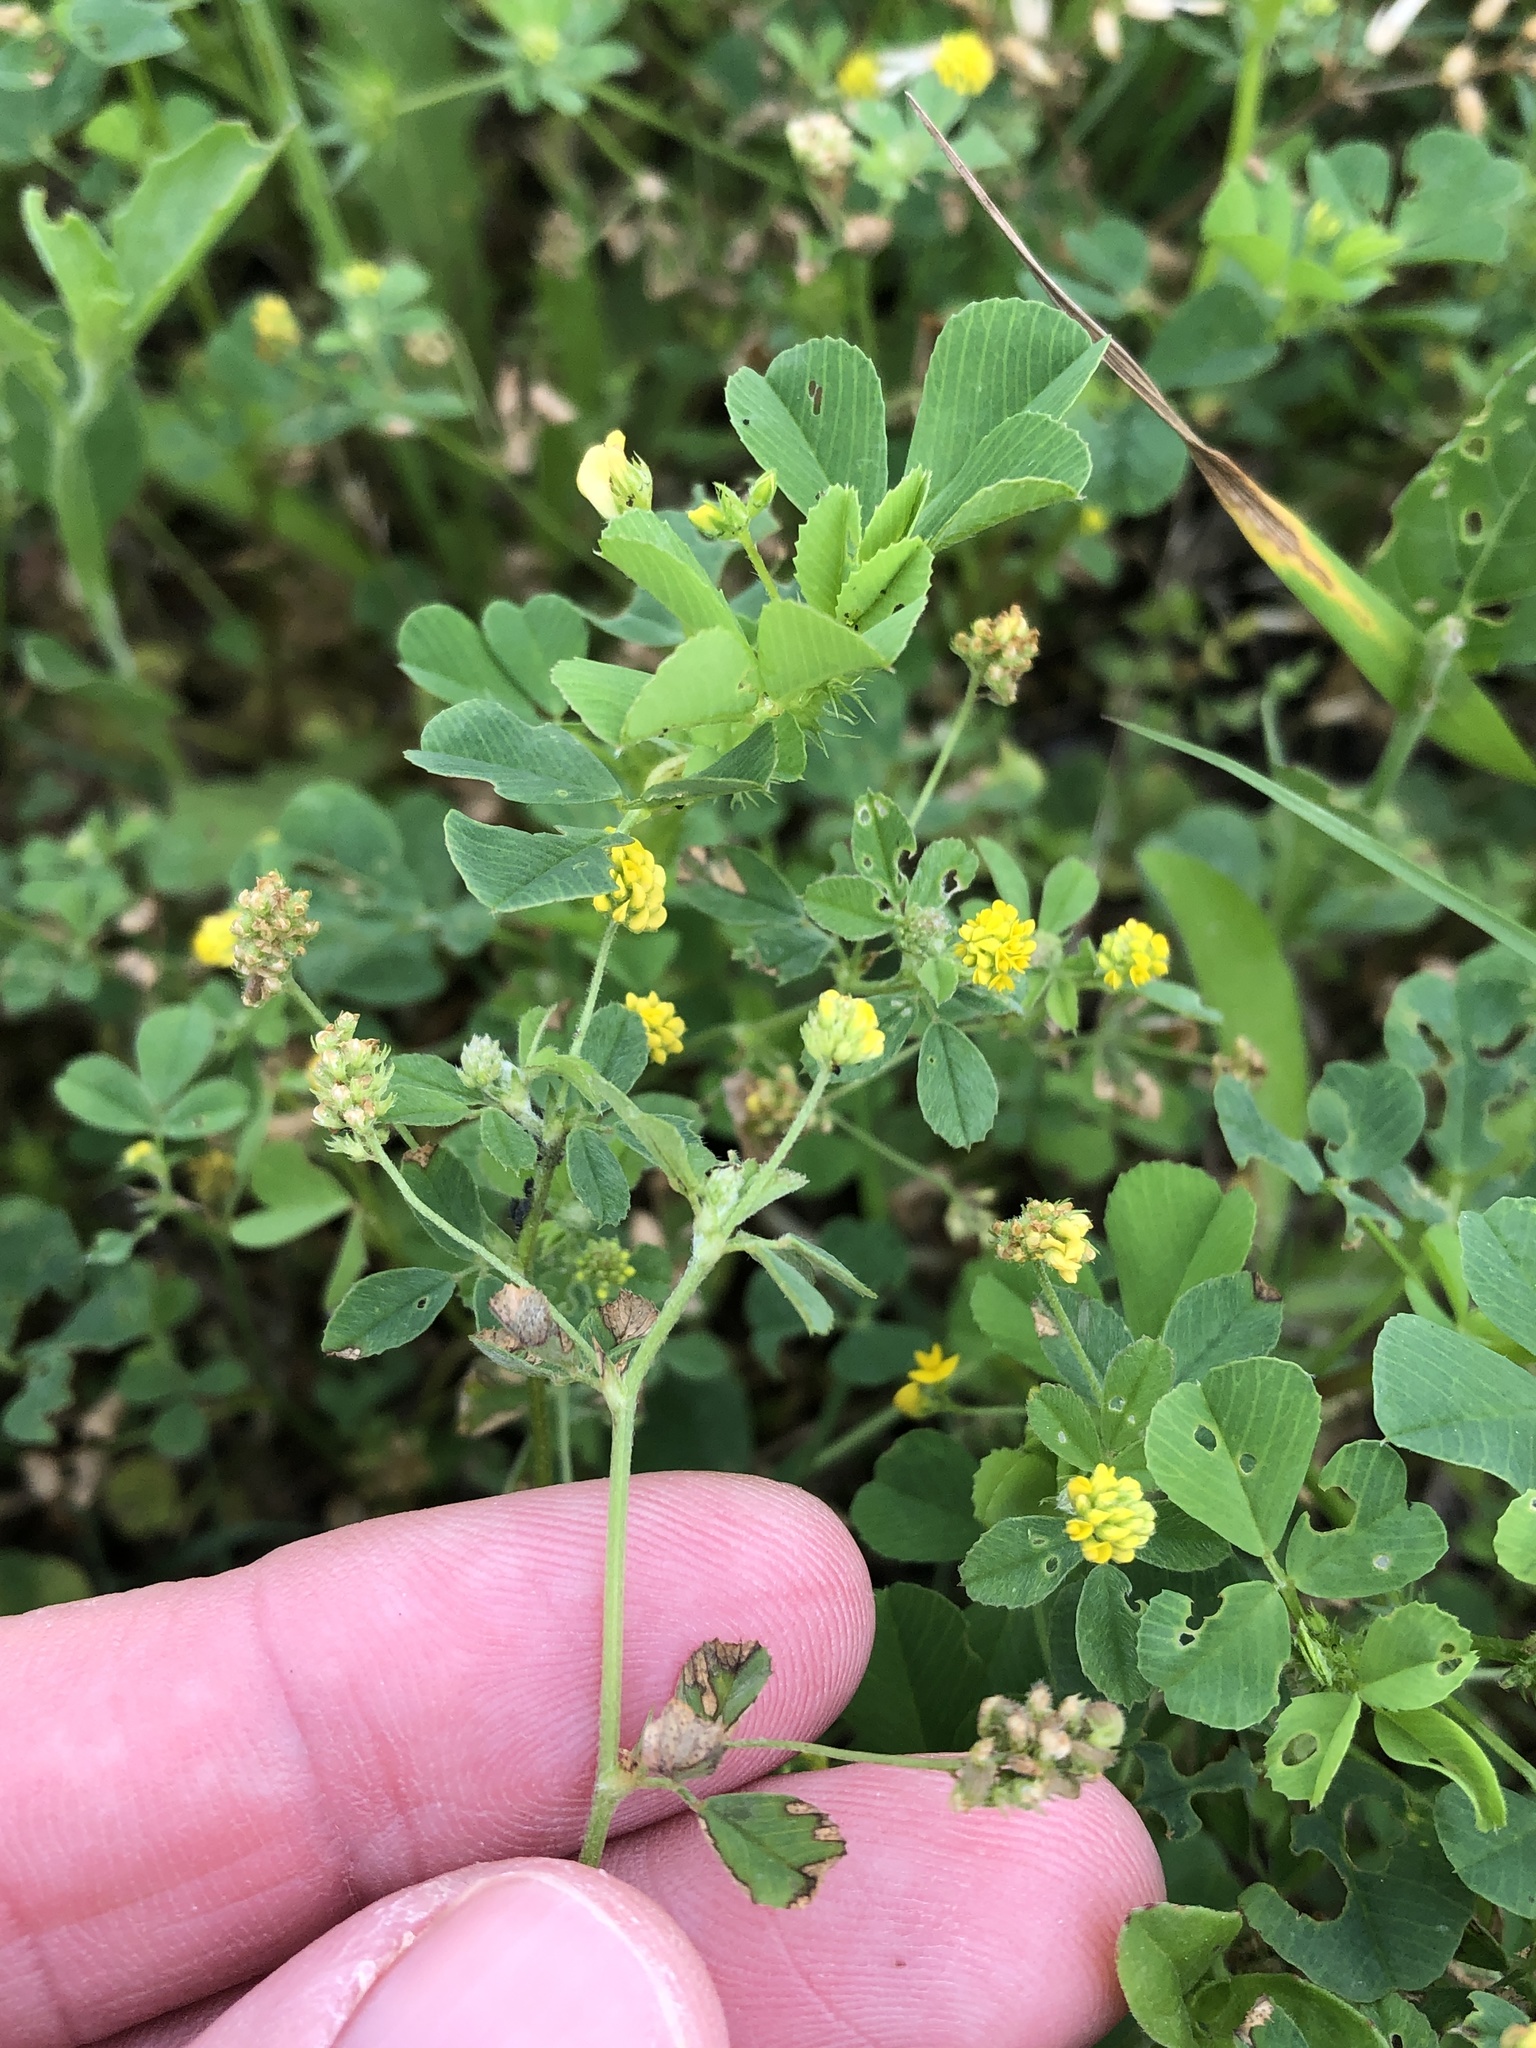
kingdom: Plantae
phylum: Tracheophyta
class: Magnoliopsida
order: Fabales
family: Fabaceae
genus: Medicago
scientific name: Medicago lupulina
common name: Black medick
